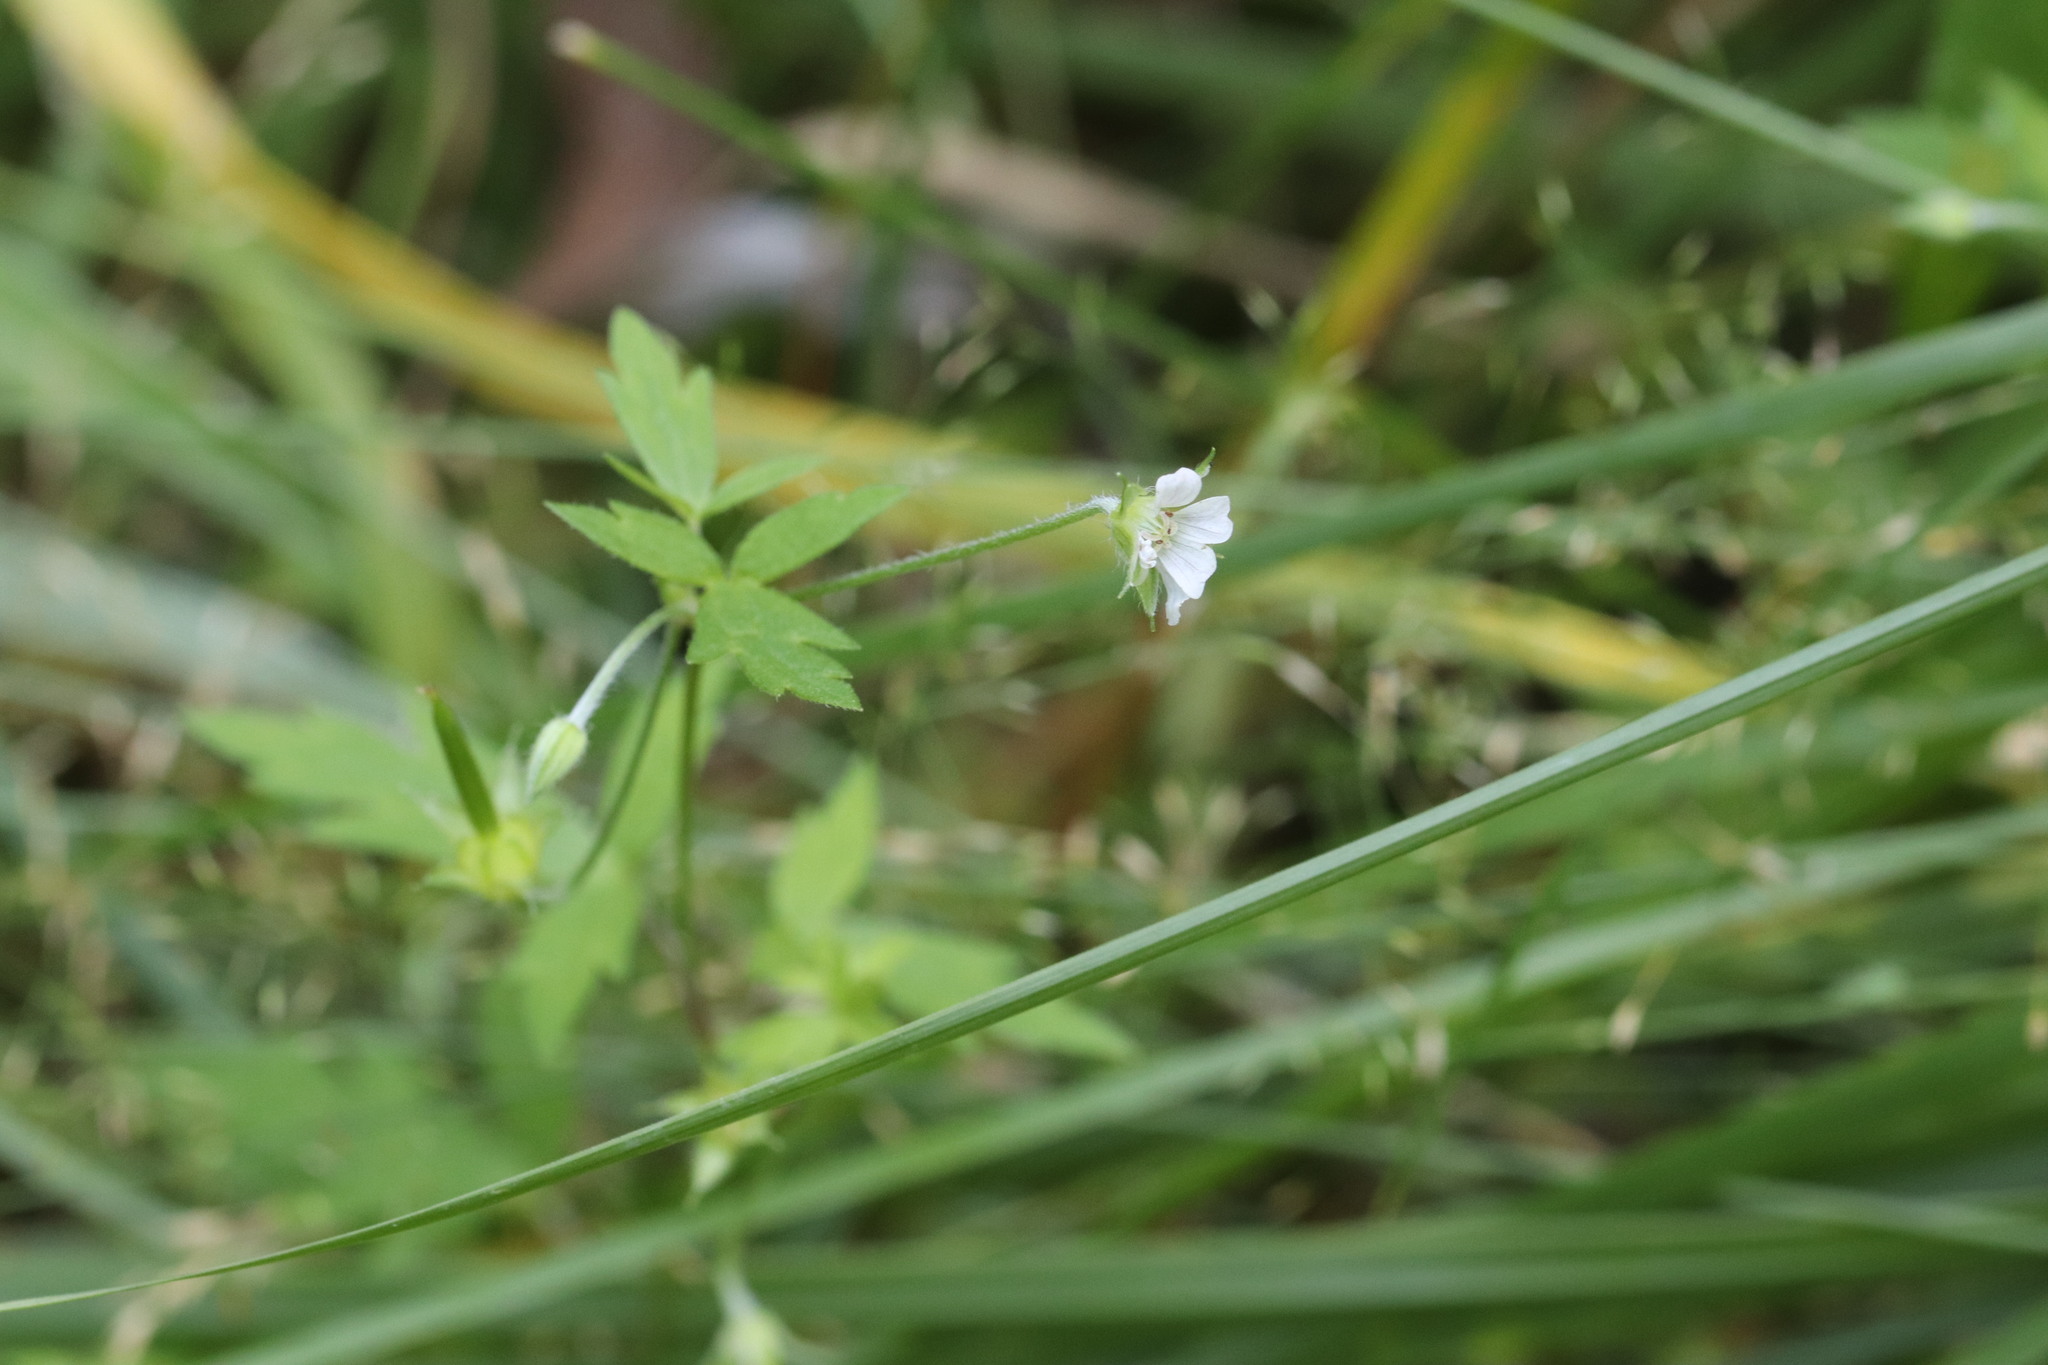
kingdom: Plantae
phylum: Tracheophyta
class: Magnoliopsida
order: Geraniales
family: Geraniaceae
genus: Geranium
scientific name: Geranium sibiricum
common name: Siberian crane's-bill
